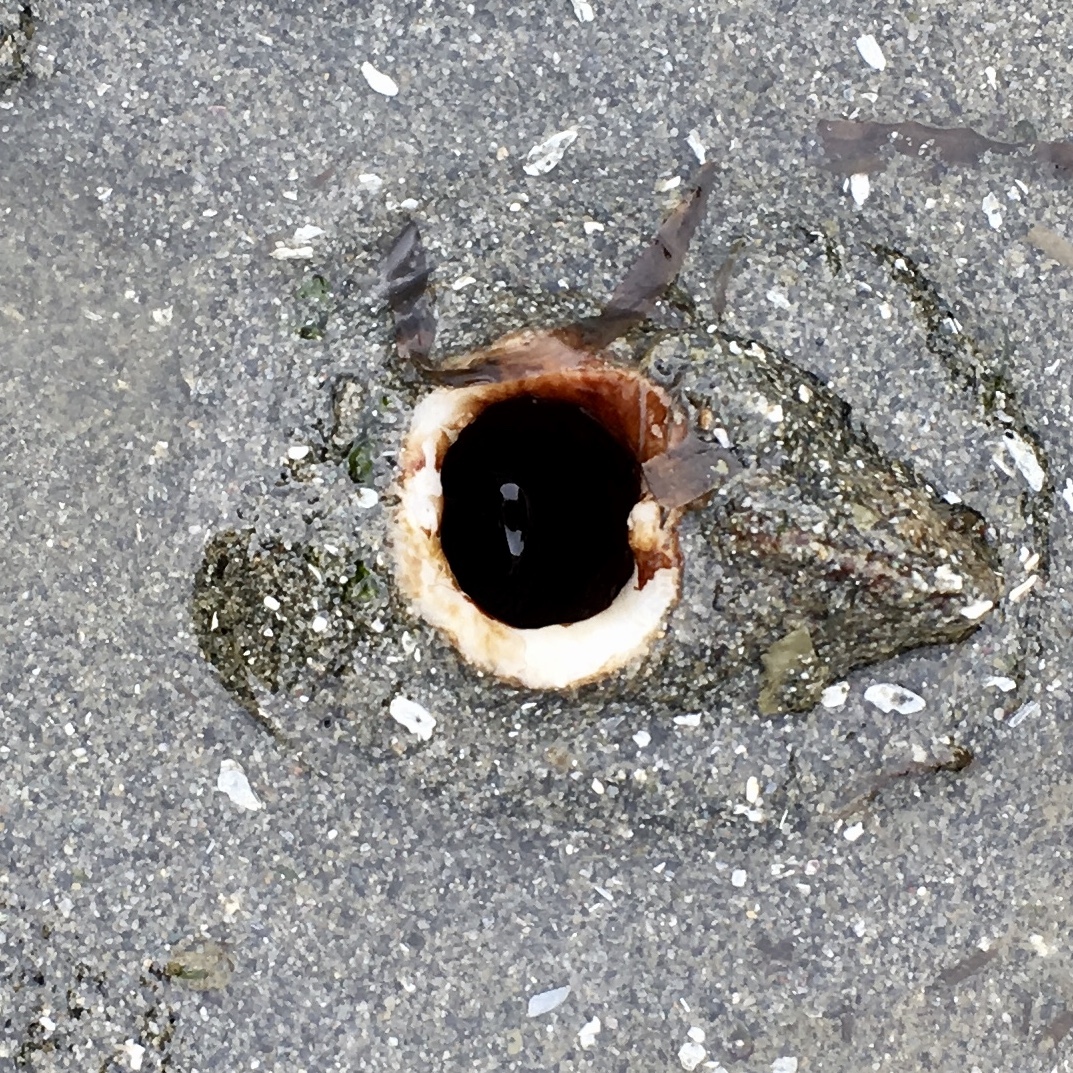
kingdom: Animalia
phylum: Mollusca
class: Bivalvia
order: Adapedonta
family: Hiatellidae
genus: Panopea
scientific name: Panopea generosa
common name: Geoduck
